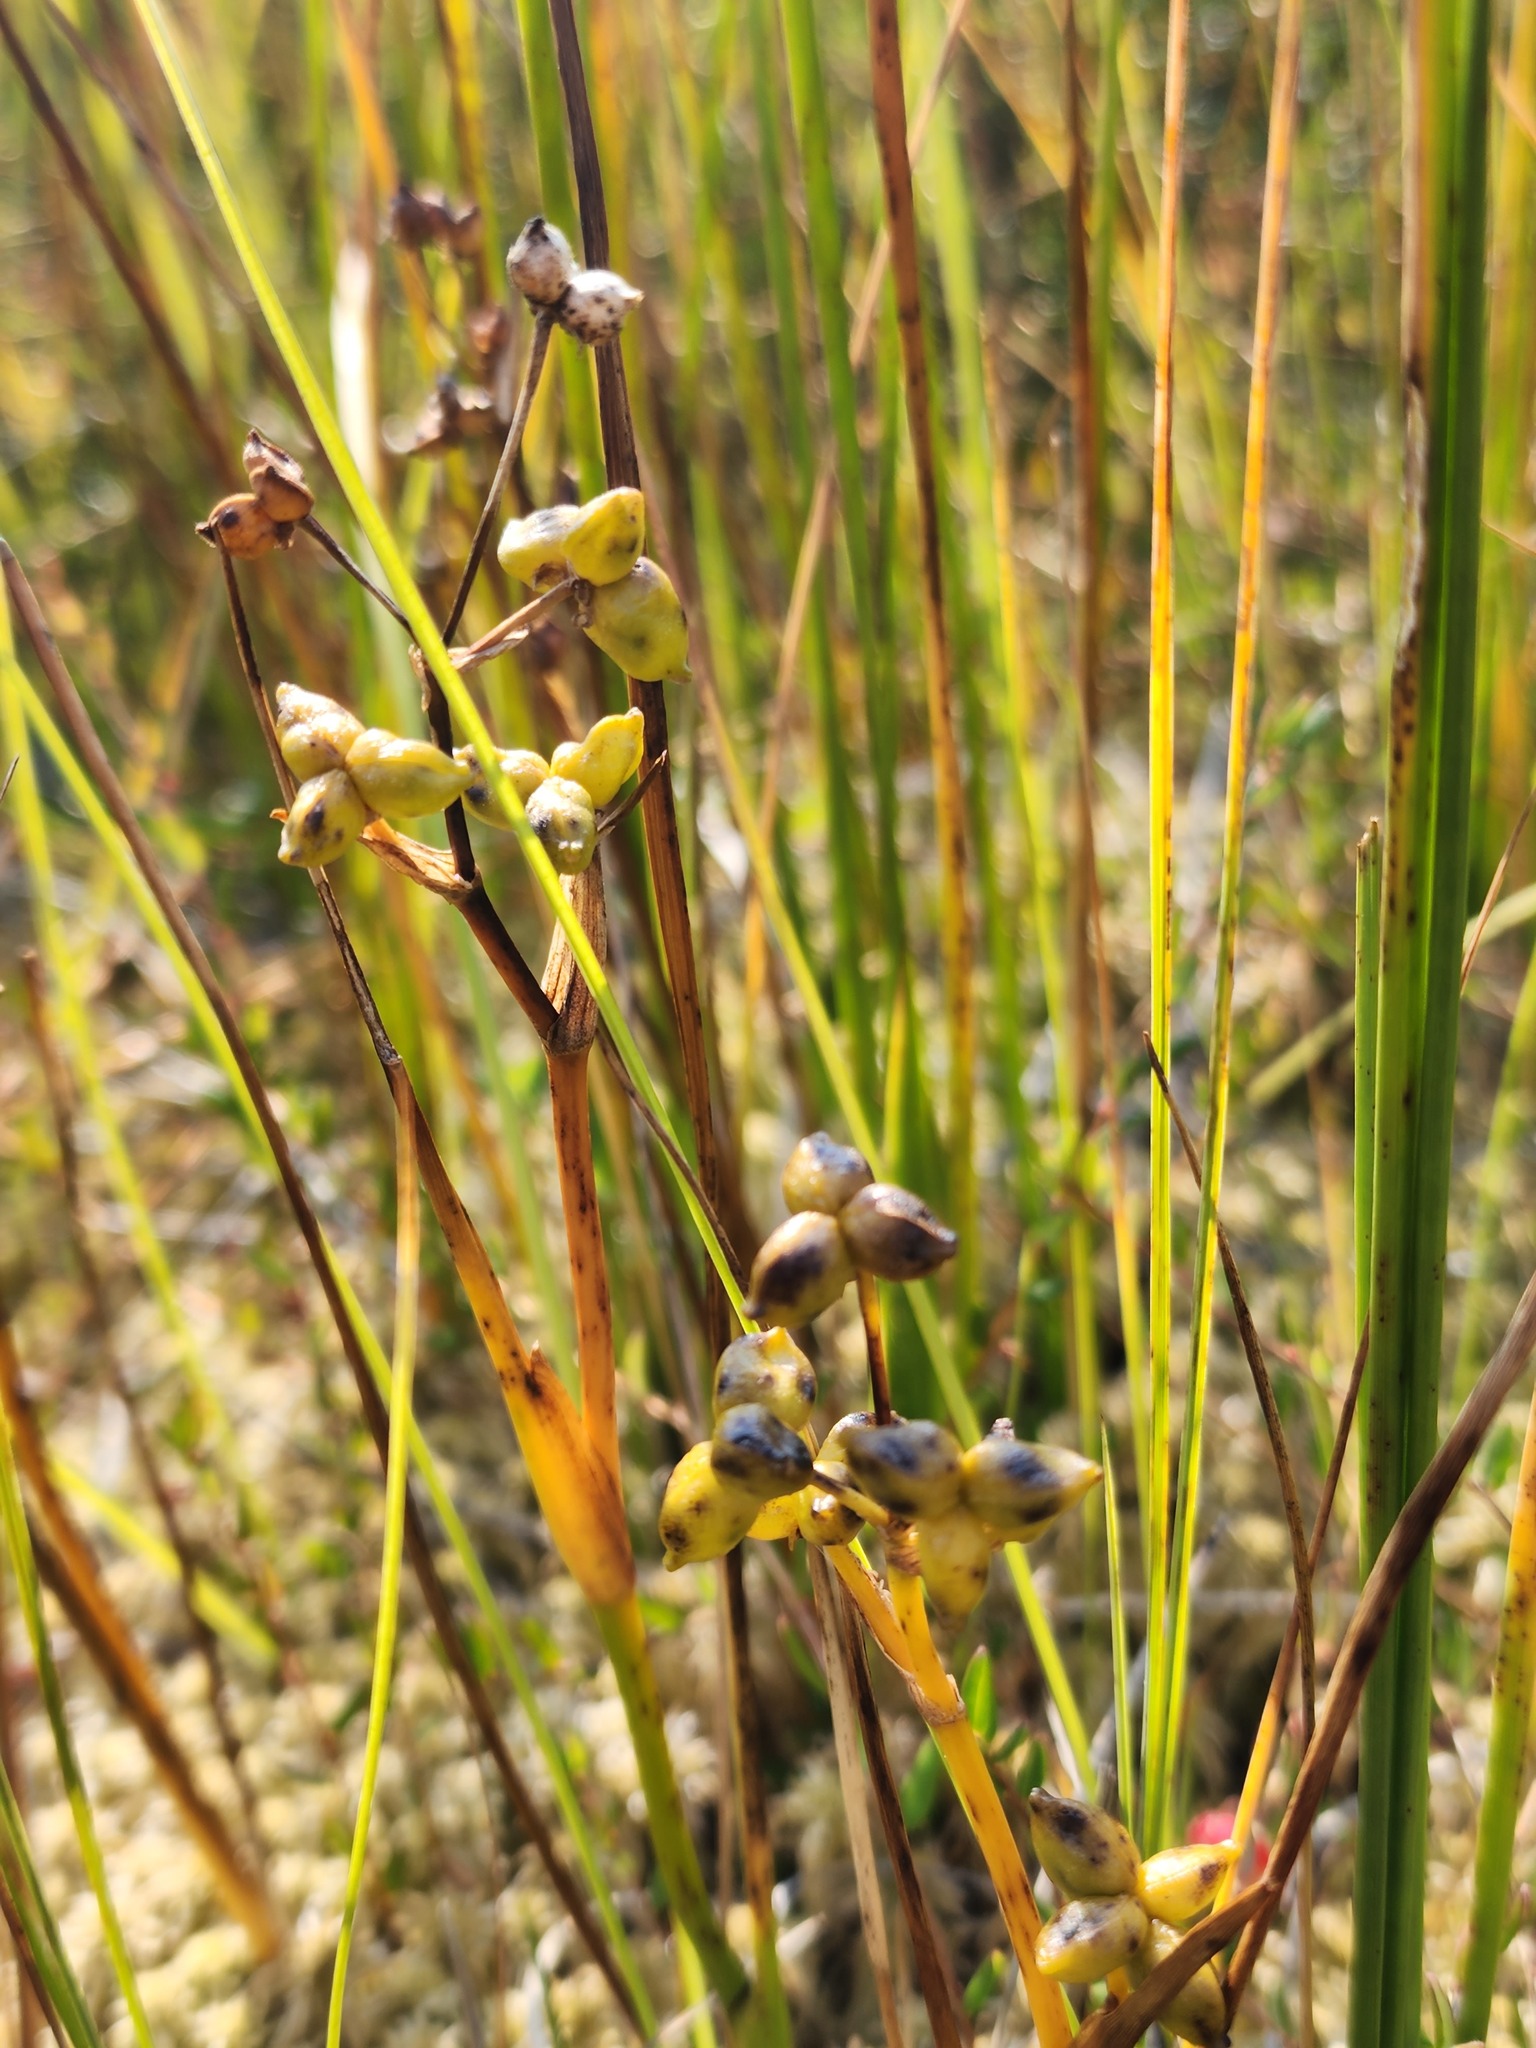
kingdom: Plantae
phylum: Tracheophyta
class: Liliopsida
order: Alismatales
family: Scheuchzeriaceae
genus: Scheuchzeria
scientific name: Scheuchzeria palustris
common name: Rannoch-rush
